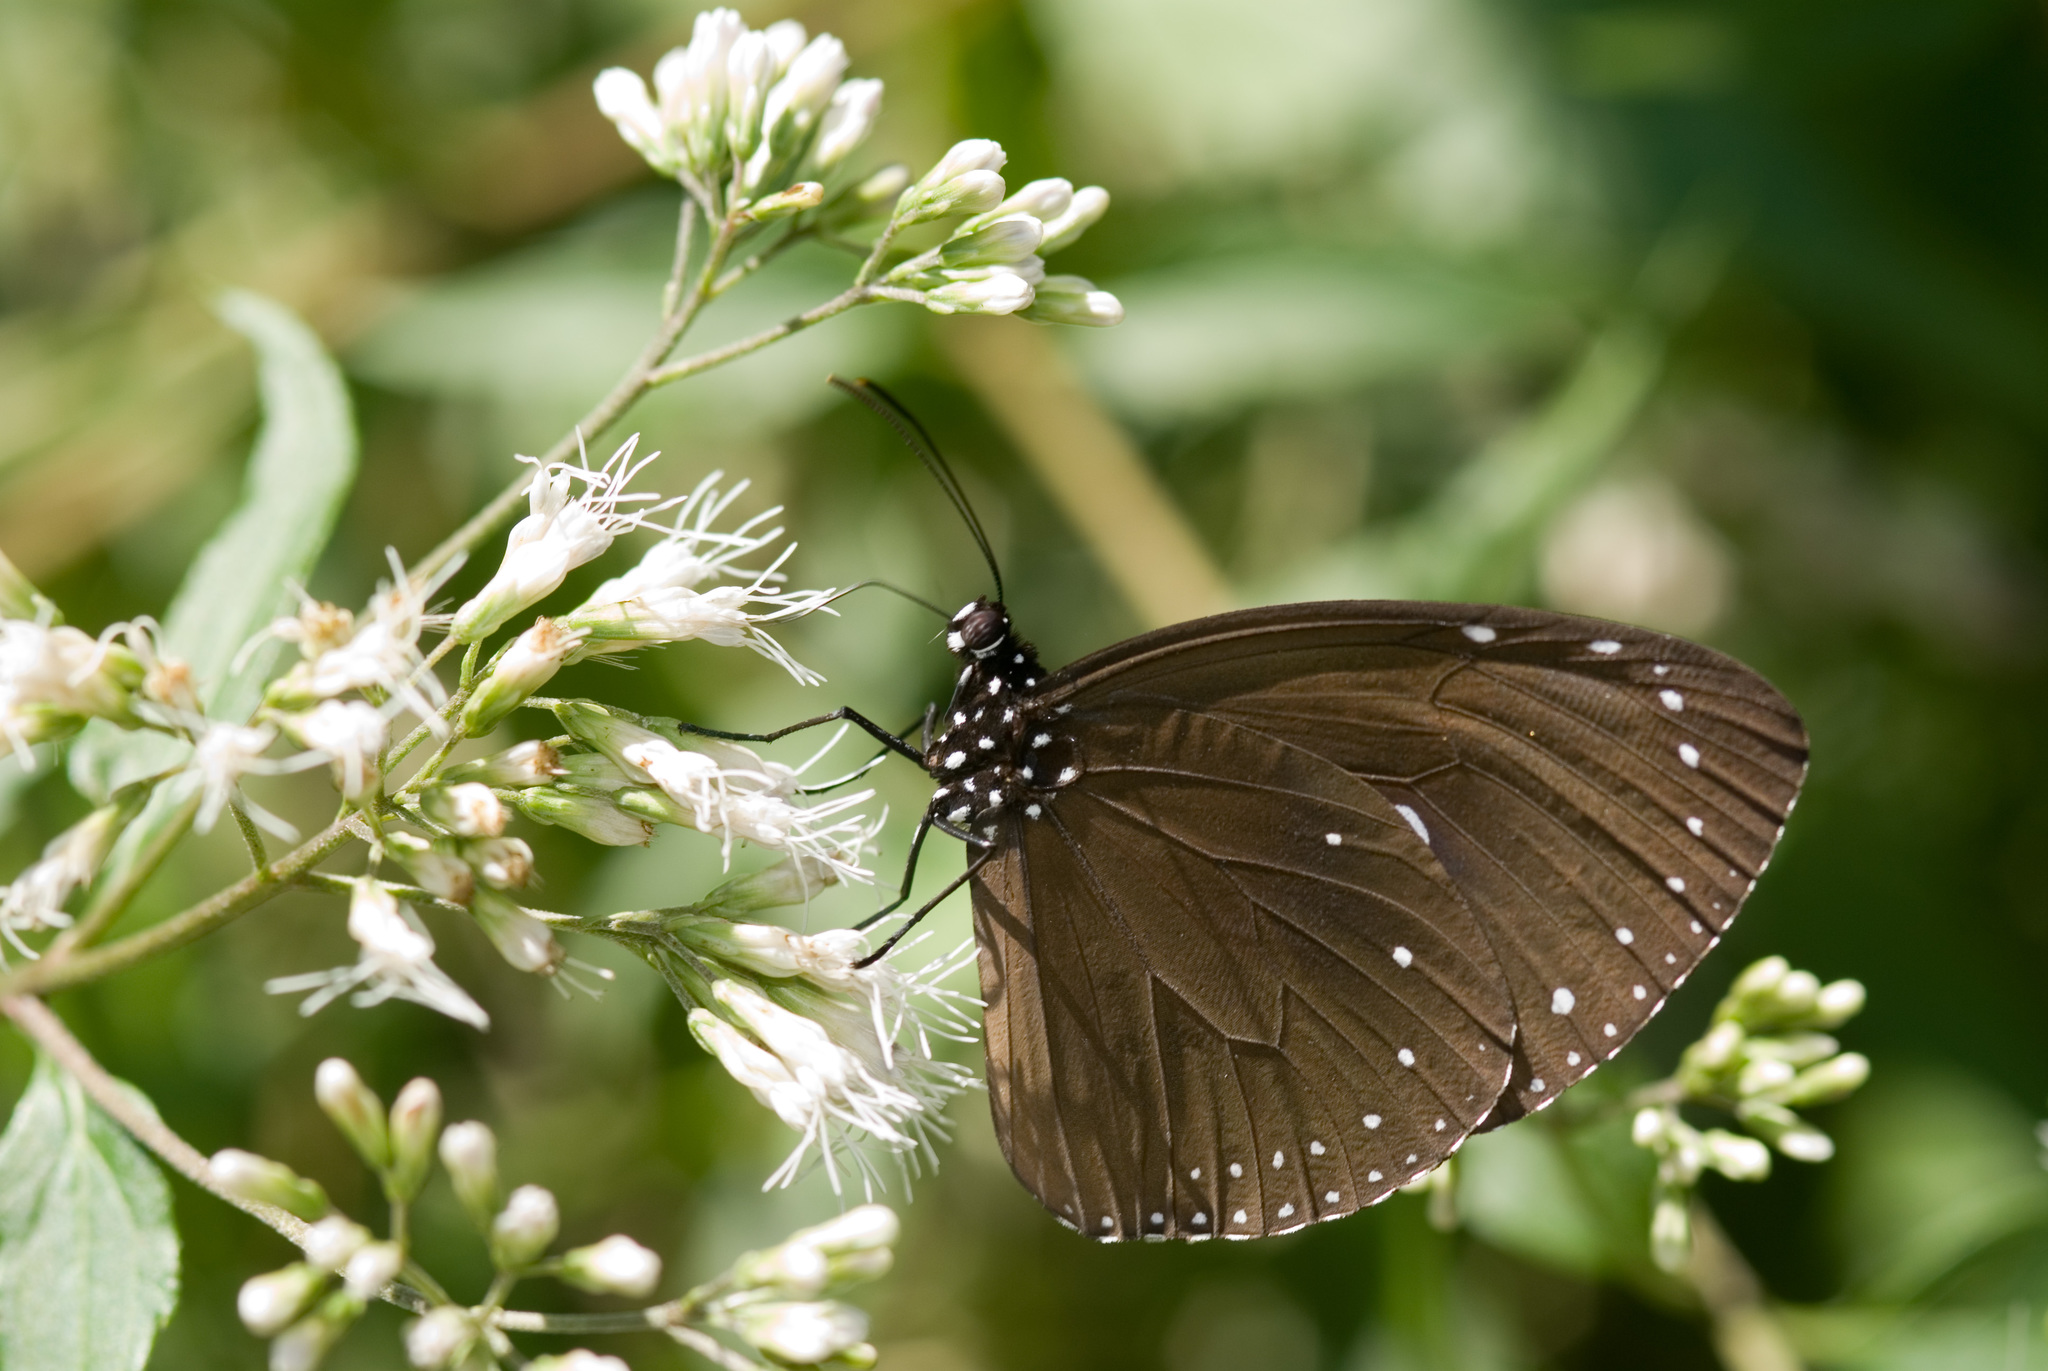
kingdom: Animalia
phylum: Arthropoda
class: Insecta
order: Lepidoptera
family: Nymphalidae
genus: Euploea
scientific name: Euploea tulliolus
